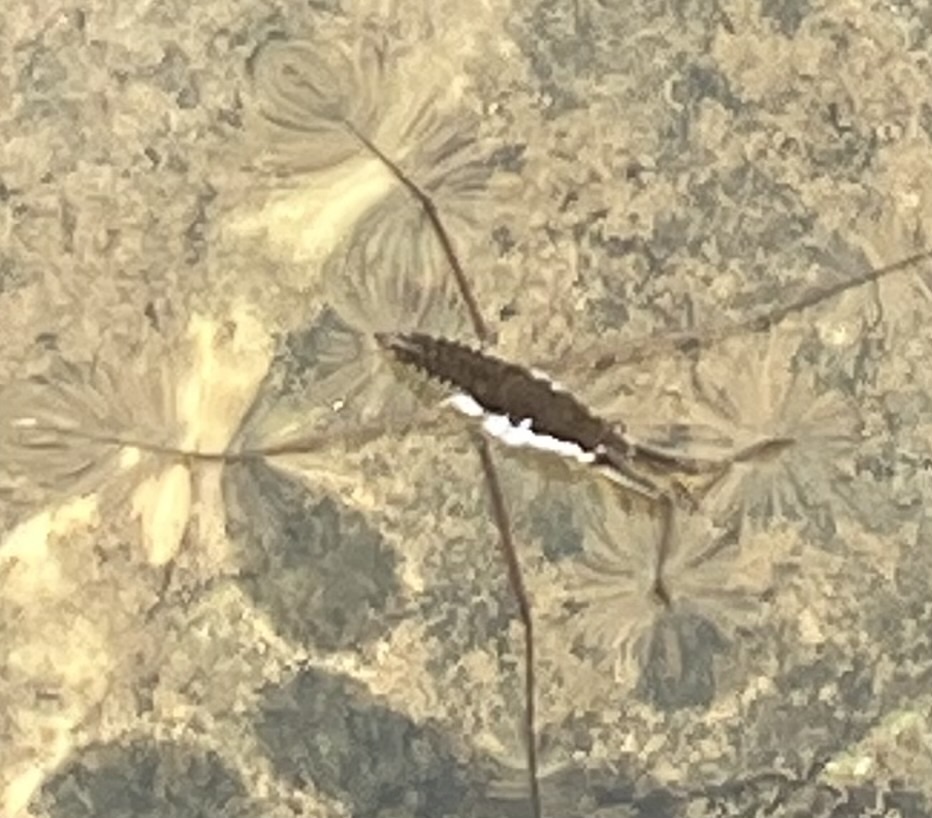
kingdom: Animalia
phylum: Arthropoda
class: Insecta
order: Hemiptera
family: Gerridae
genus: Aquarius
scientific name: Aquarius remigis
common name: Common water strider
